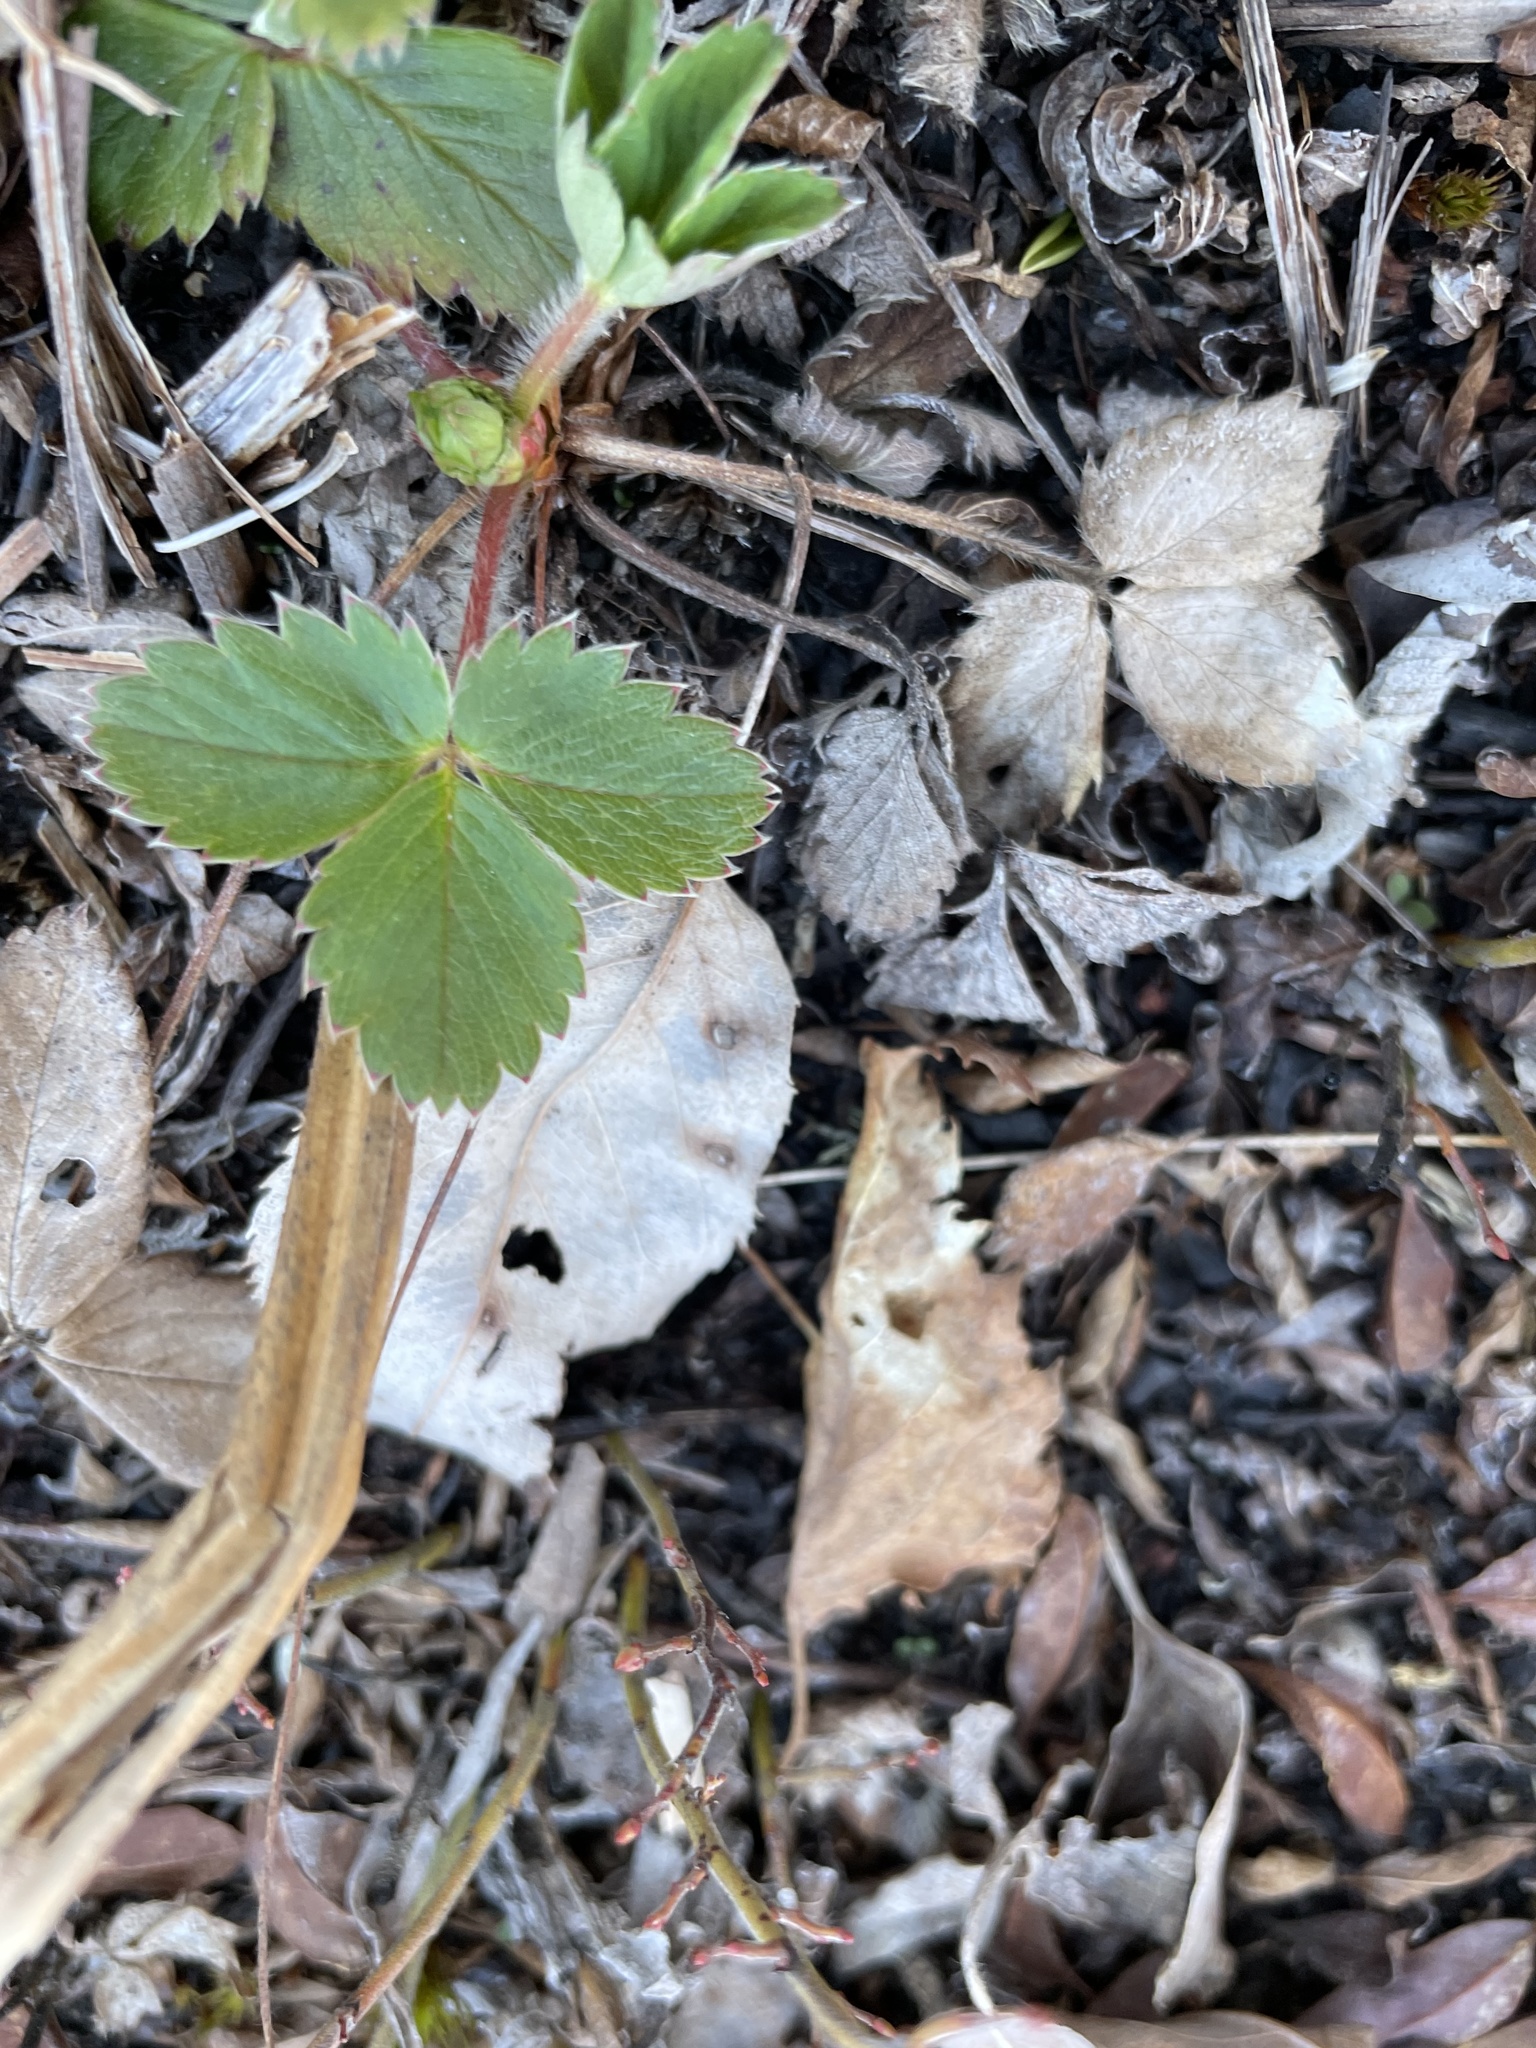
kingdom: Plantae
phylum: Tracheophyta
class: Magnoliopsida
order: Rosales
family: Rosaceae
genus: Fragaria
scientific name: Fragaria virginiana
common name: Thickleaved wild strawberry
